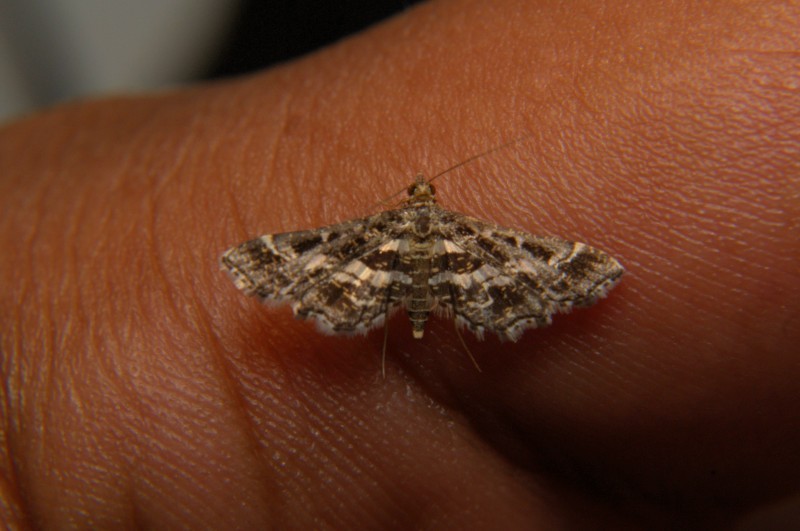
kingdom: Animalia
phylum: Arthropoda
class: Insecta
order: Lepidoptera
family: Crambidae
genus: Diasemiopsis
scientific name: Diasemiopsis ramburialis
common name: Vagrant china-mark
